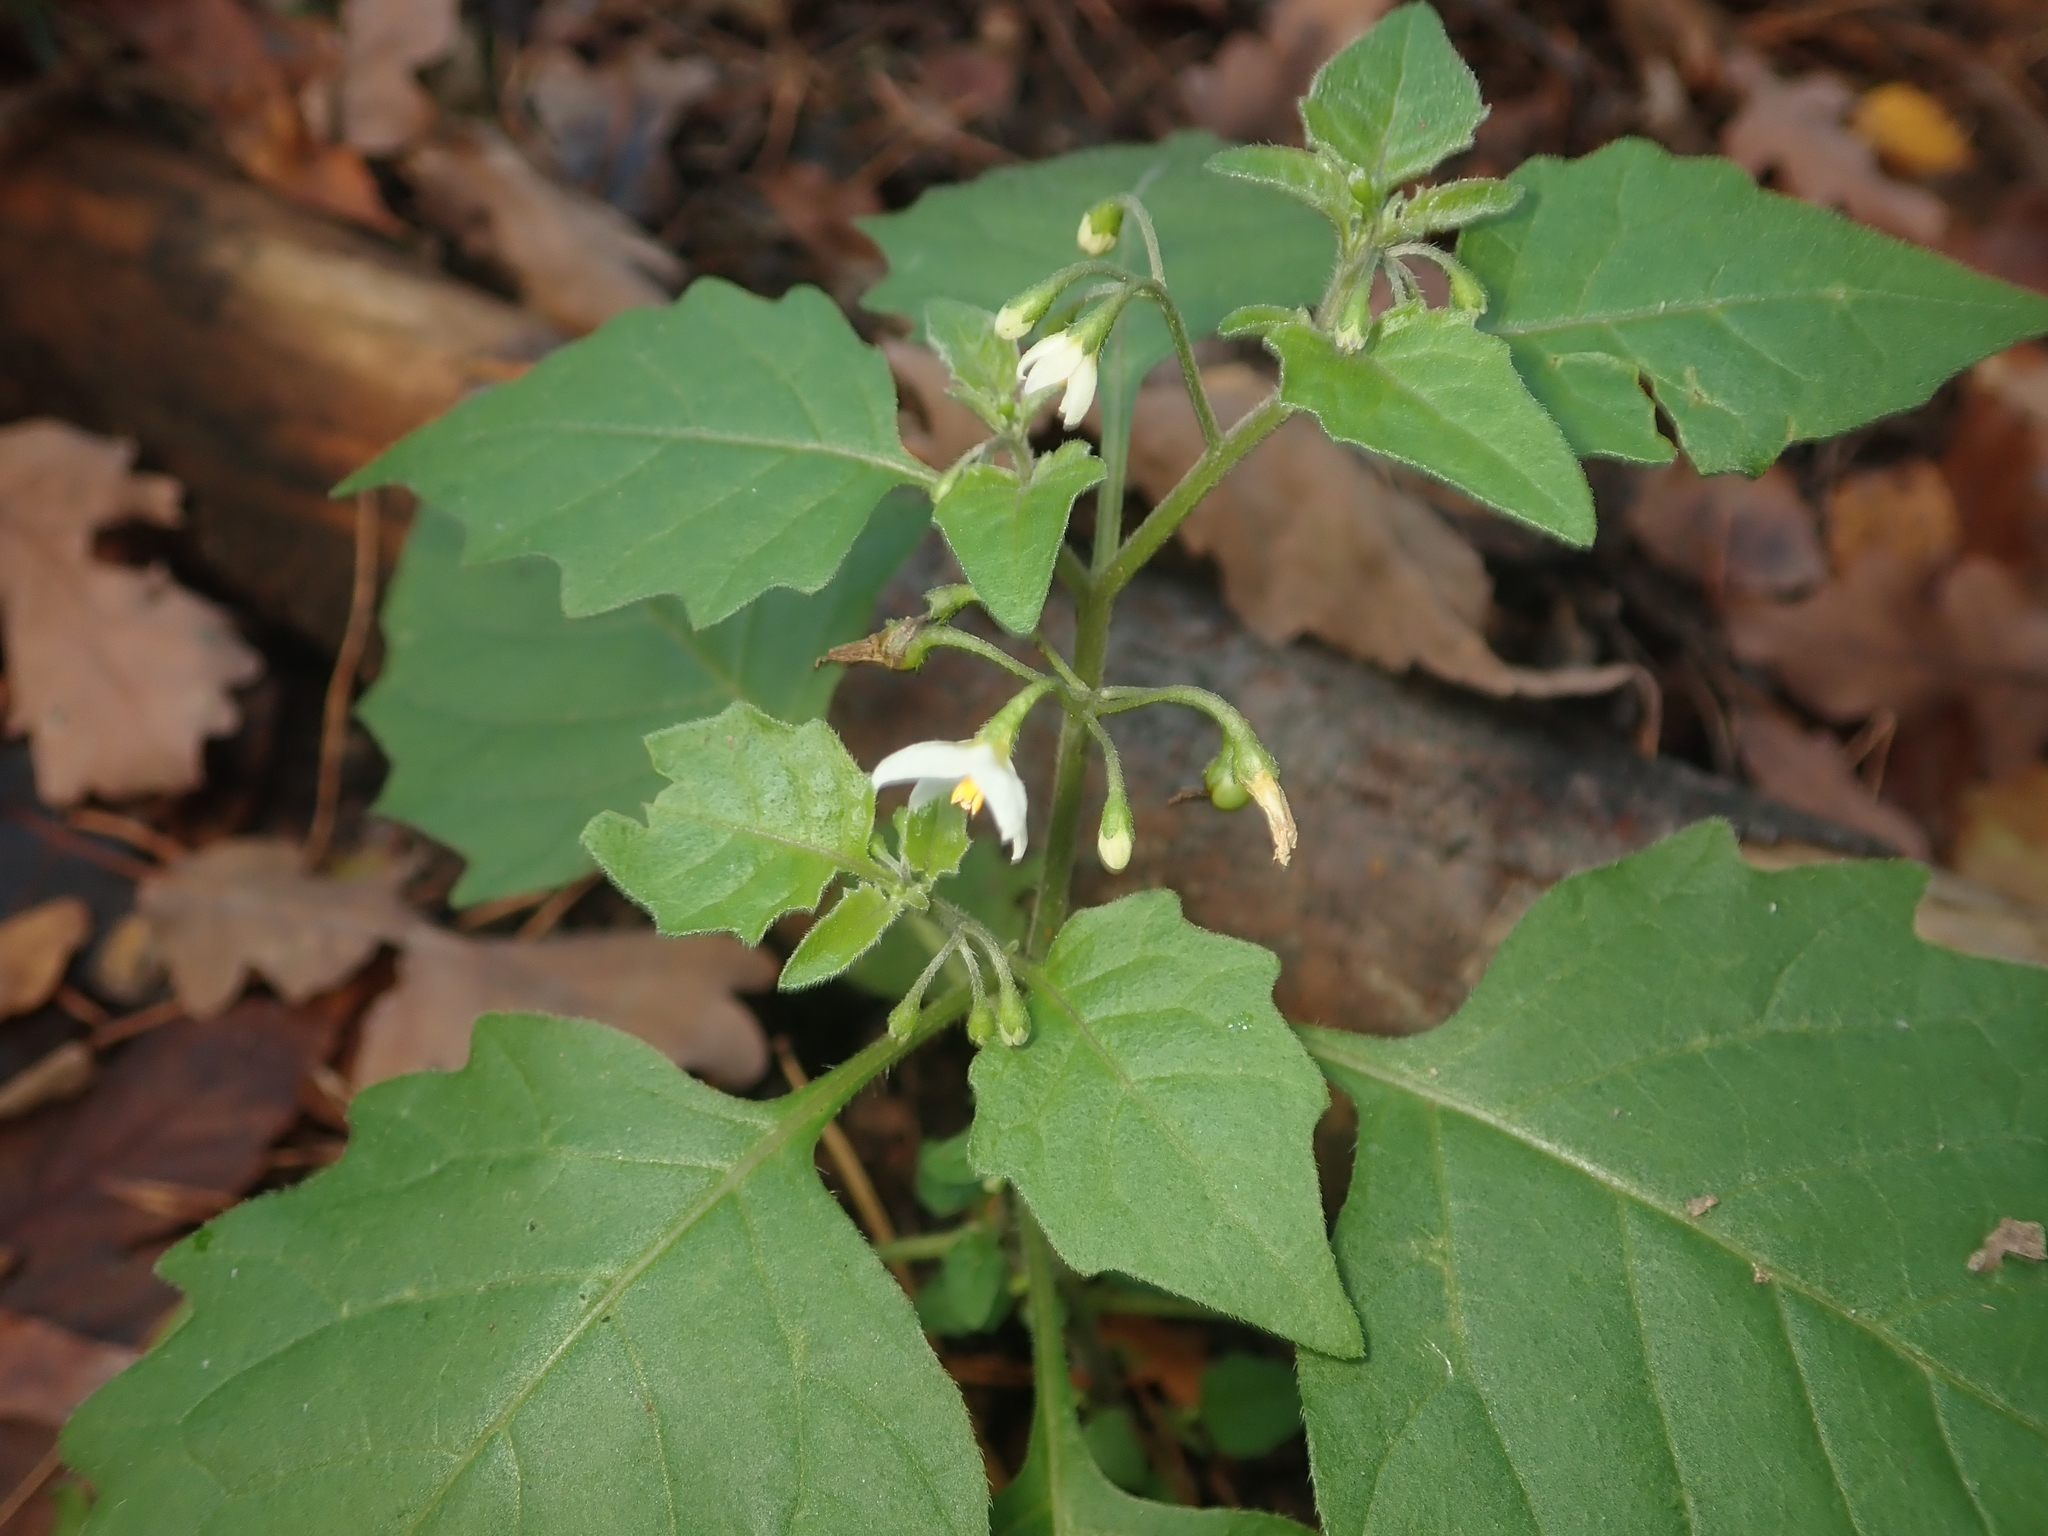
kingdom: Plantae
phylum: Tracheophyta
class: Magnoliopsida
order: Solanales
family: Solanaceae
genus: Solanum
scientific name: Solanum nigrum
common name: Black nightshade
